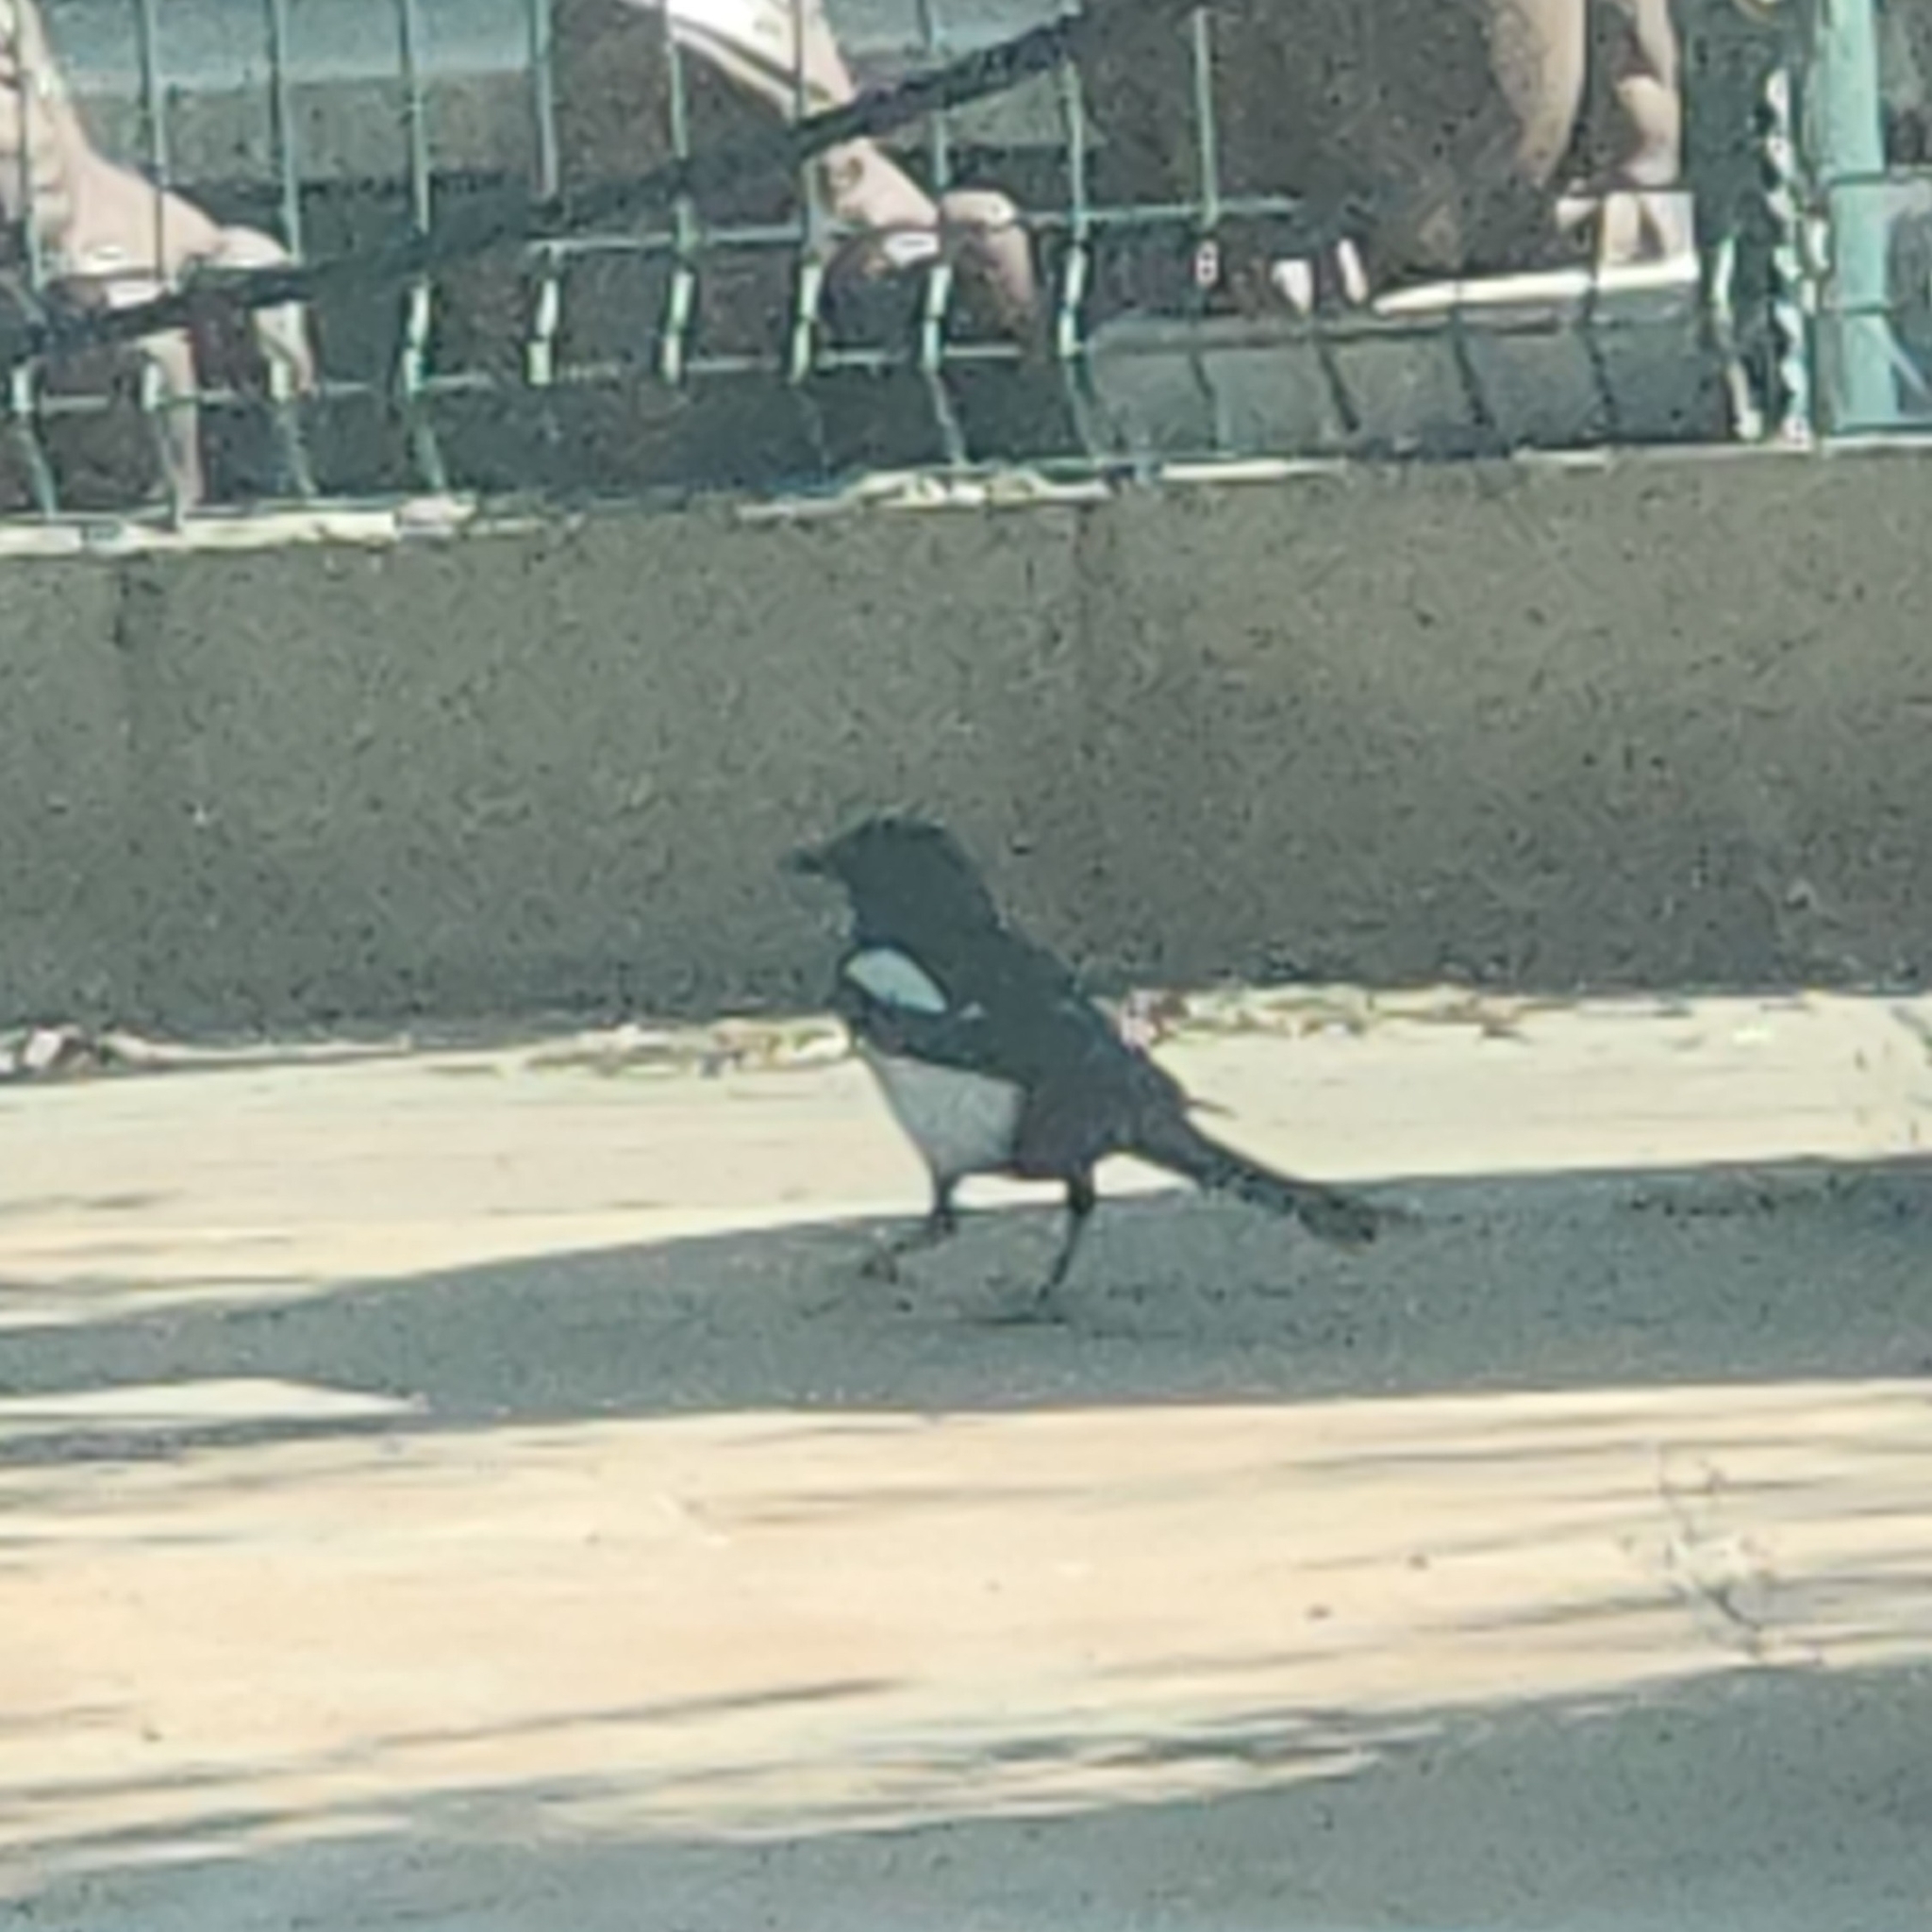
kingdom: Animalia
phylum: Chordata
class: Aves
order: Passeriformes
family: Corvidae
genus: Pica
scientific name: Pica pica
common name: Eurasian magpie
